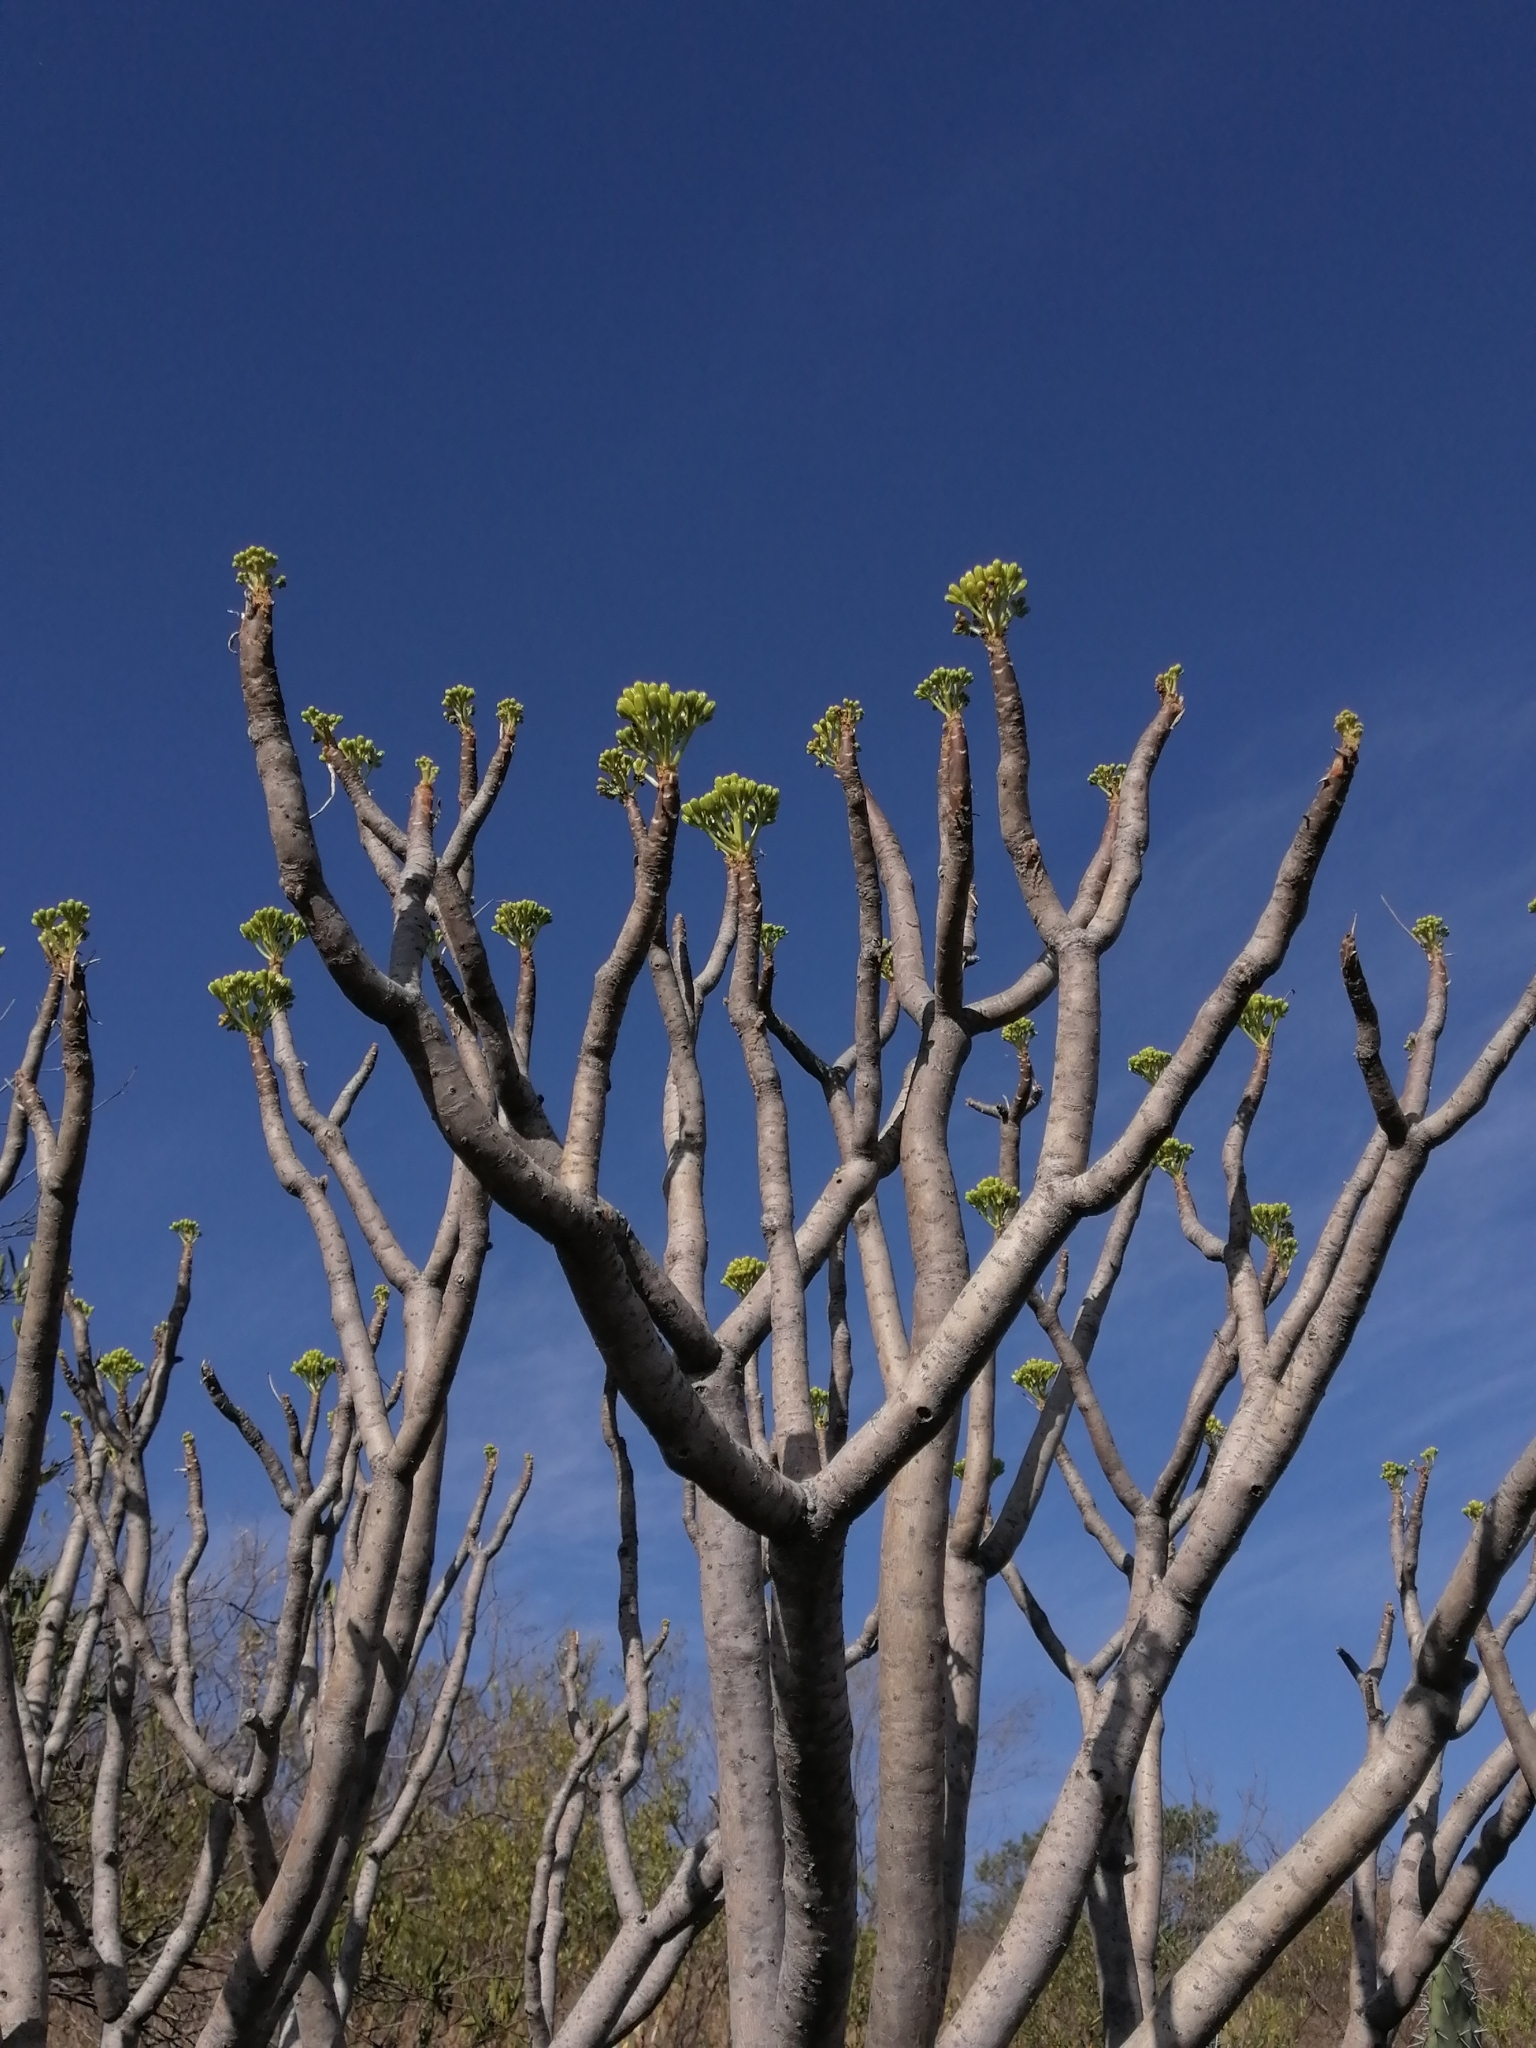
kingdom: Plantae
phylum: Tracheophyta
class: Magnoliopsida
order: Asterales
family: Asteraceae
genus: Pittocaulon
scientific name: Pittocaulon praecox
